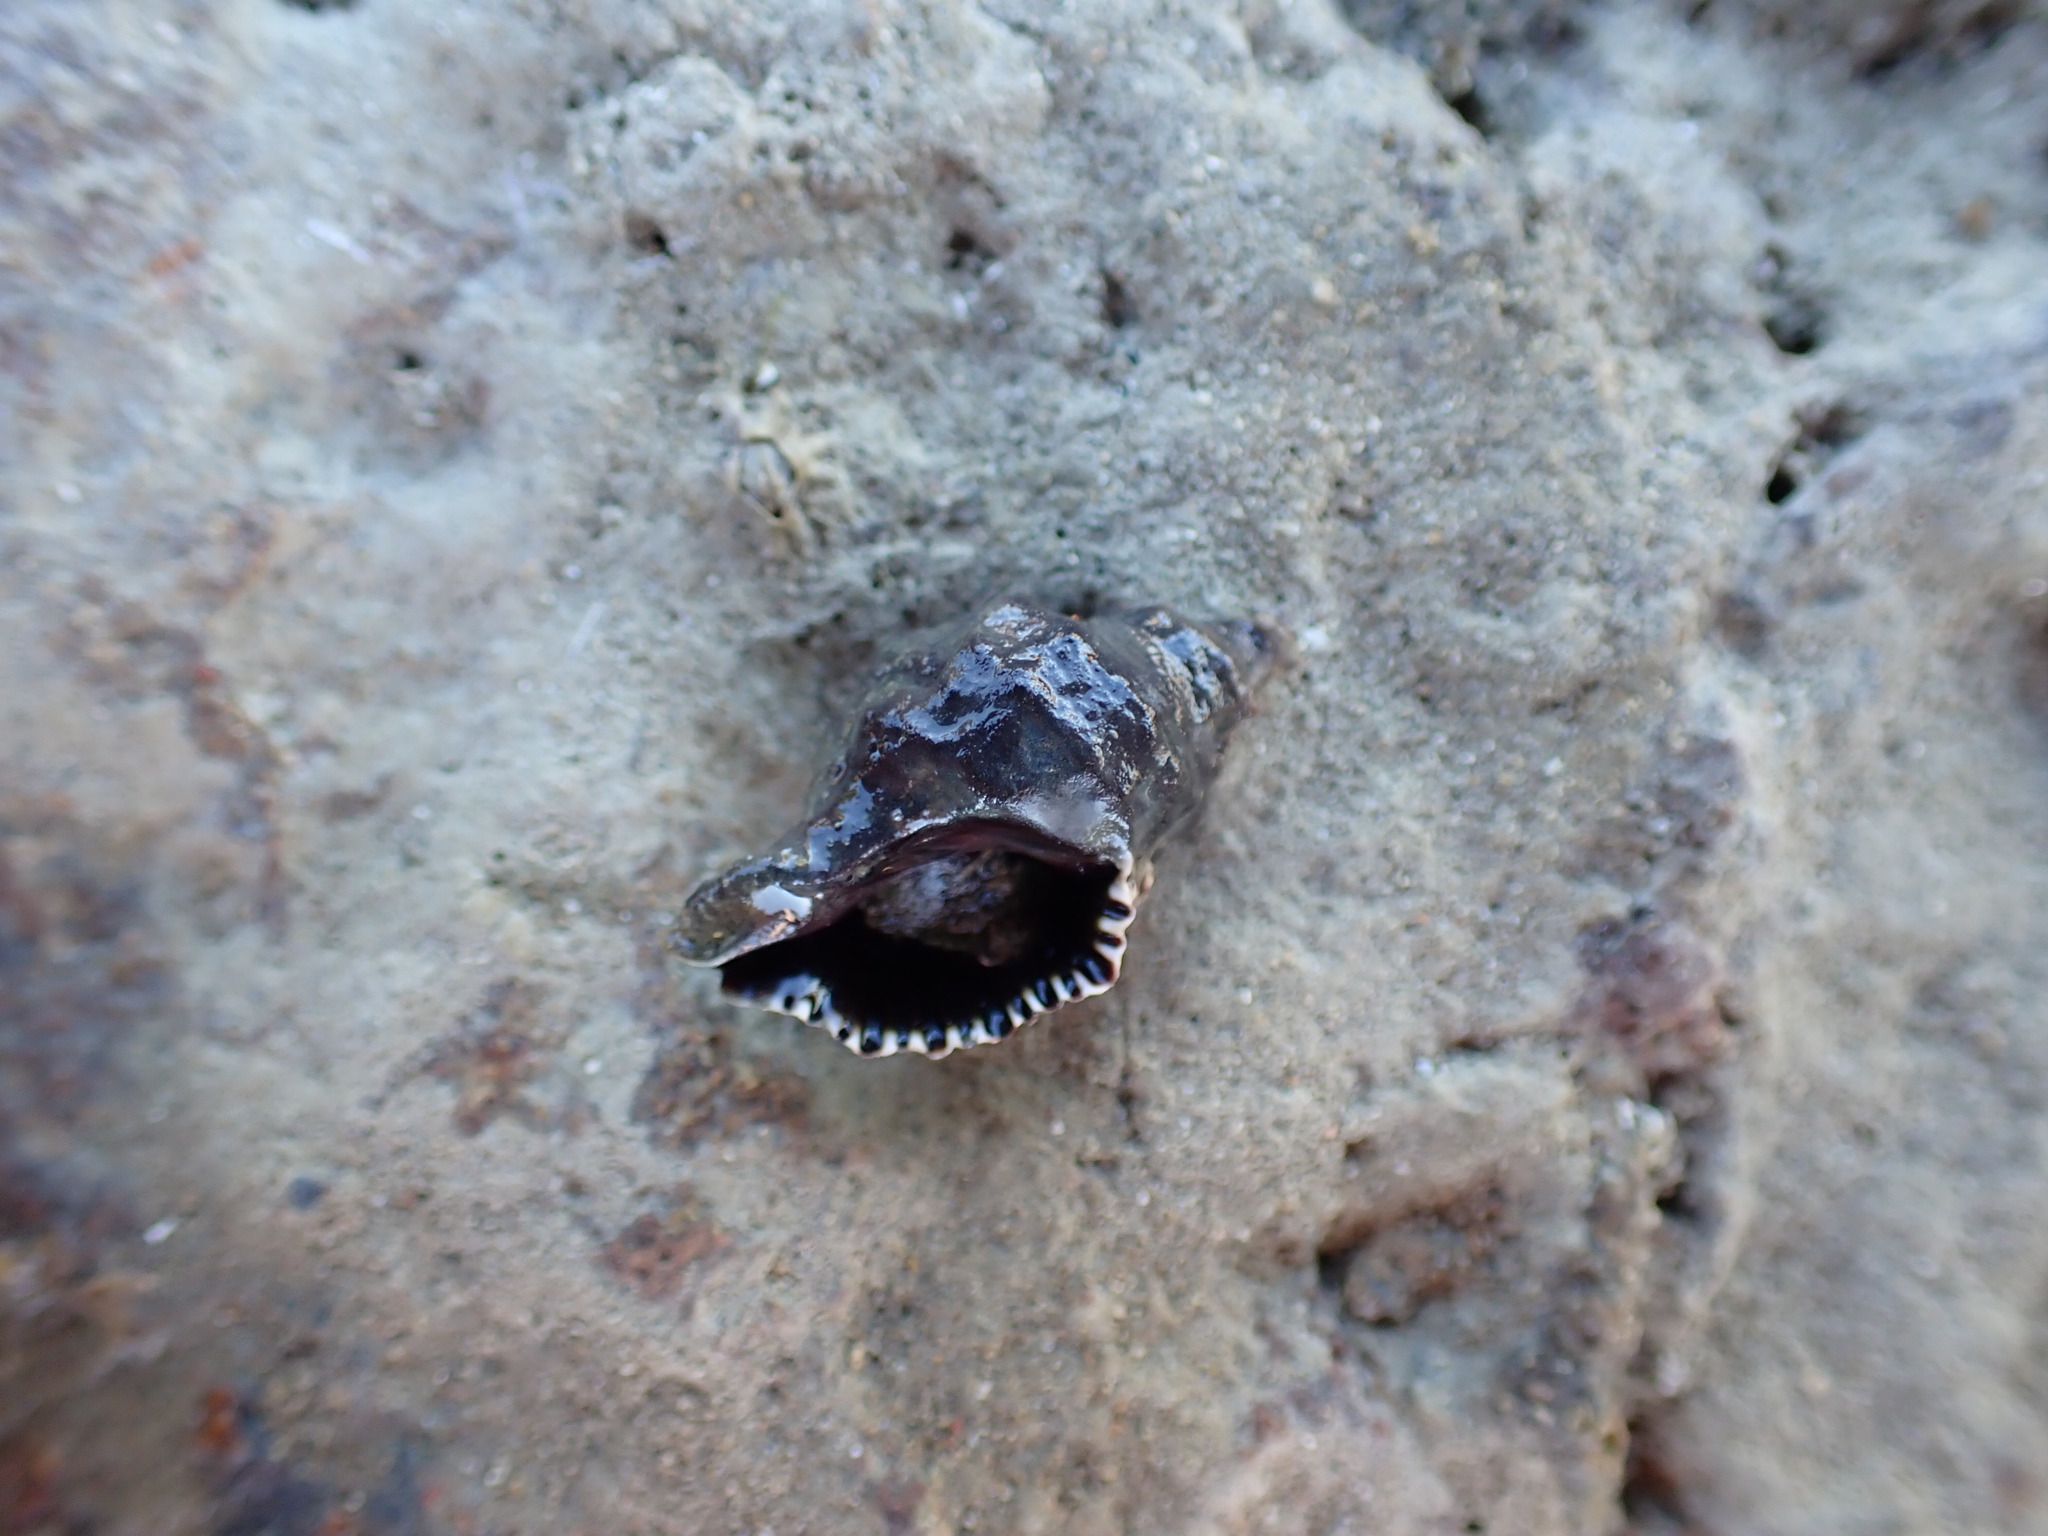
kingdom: Animalia
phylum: Mollusca
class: Gastropoda
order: Neogastropoda
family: Muricidae
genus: Haustrum
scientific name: Haustrum scobina
